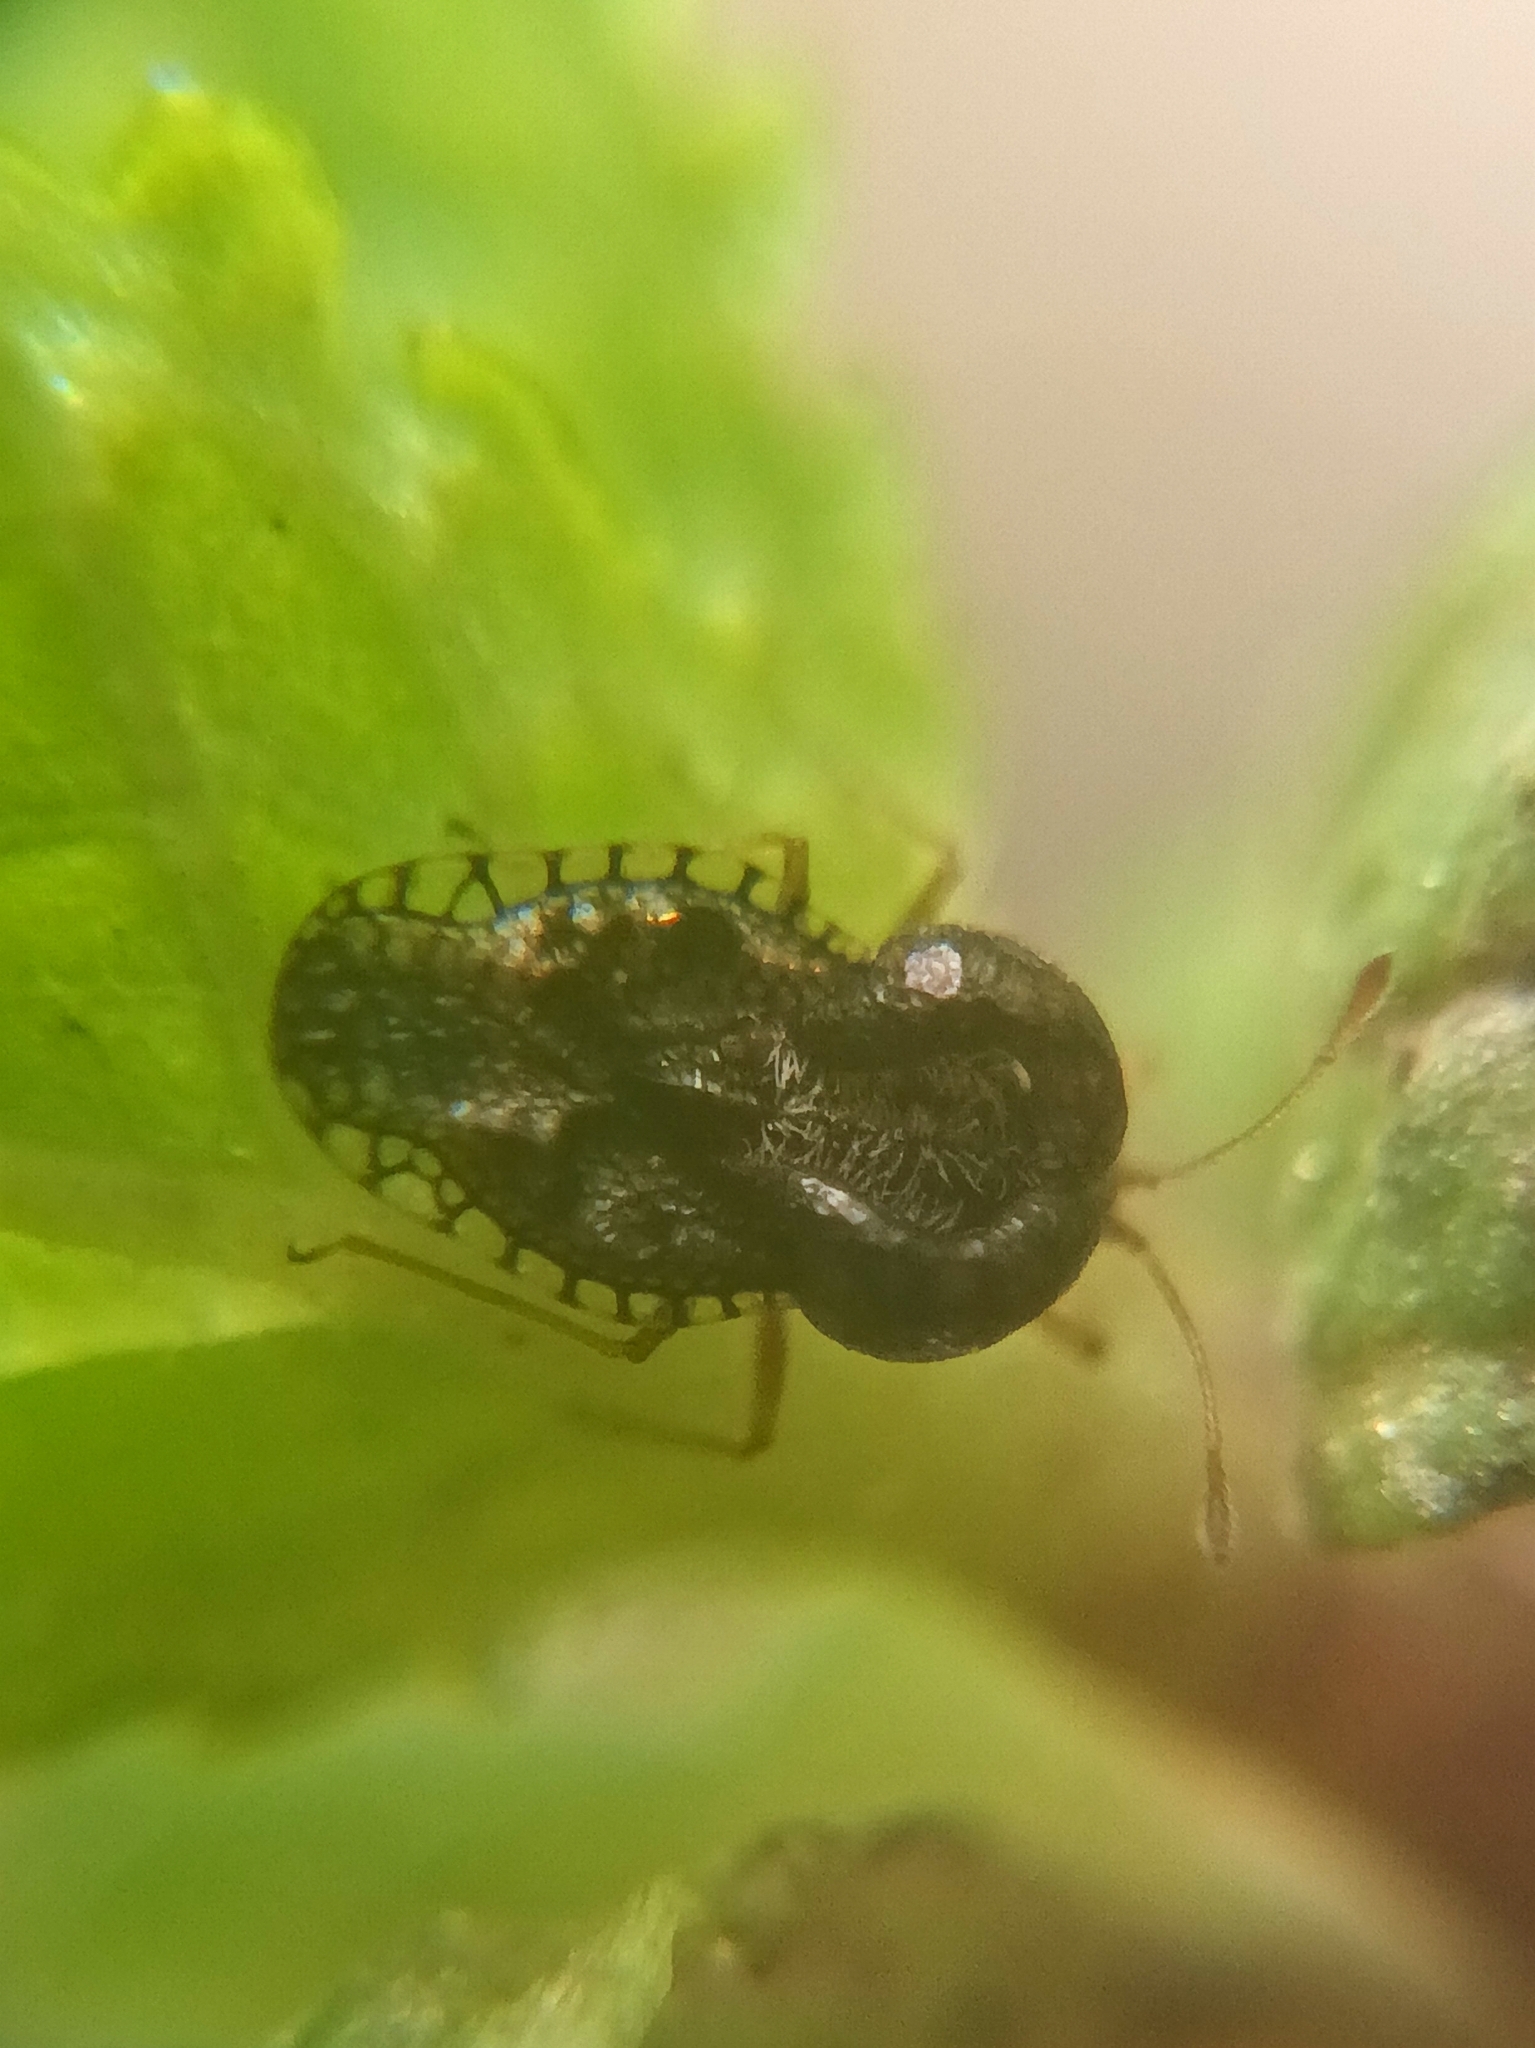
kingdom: Animalia
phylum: Arthropoda
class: Insecta
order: Hemiptera
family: Tingidae
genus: Cochlochila
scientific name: Cochlochila bullita
